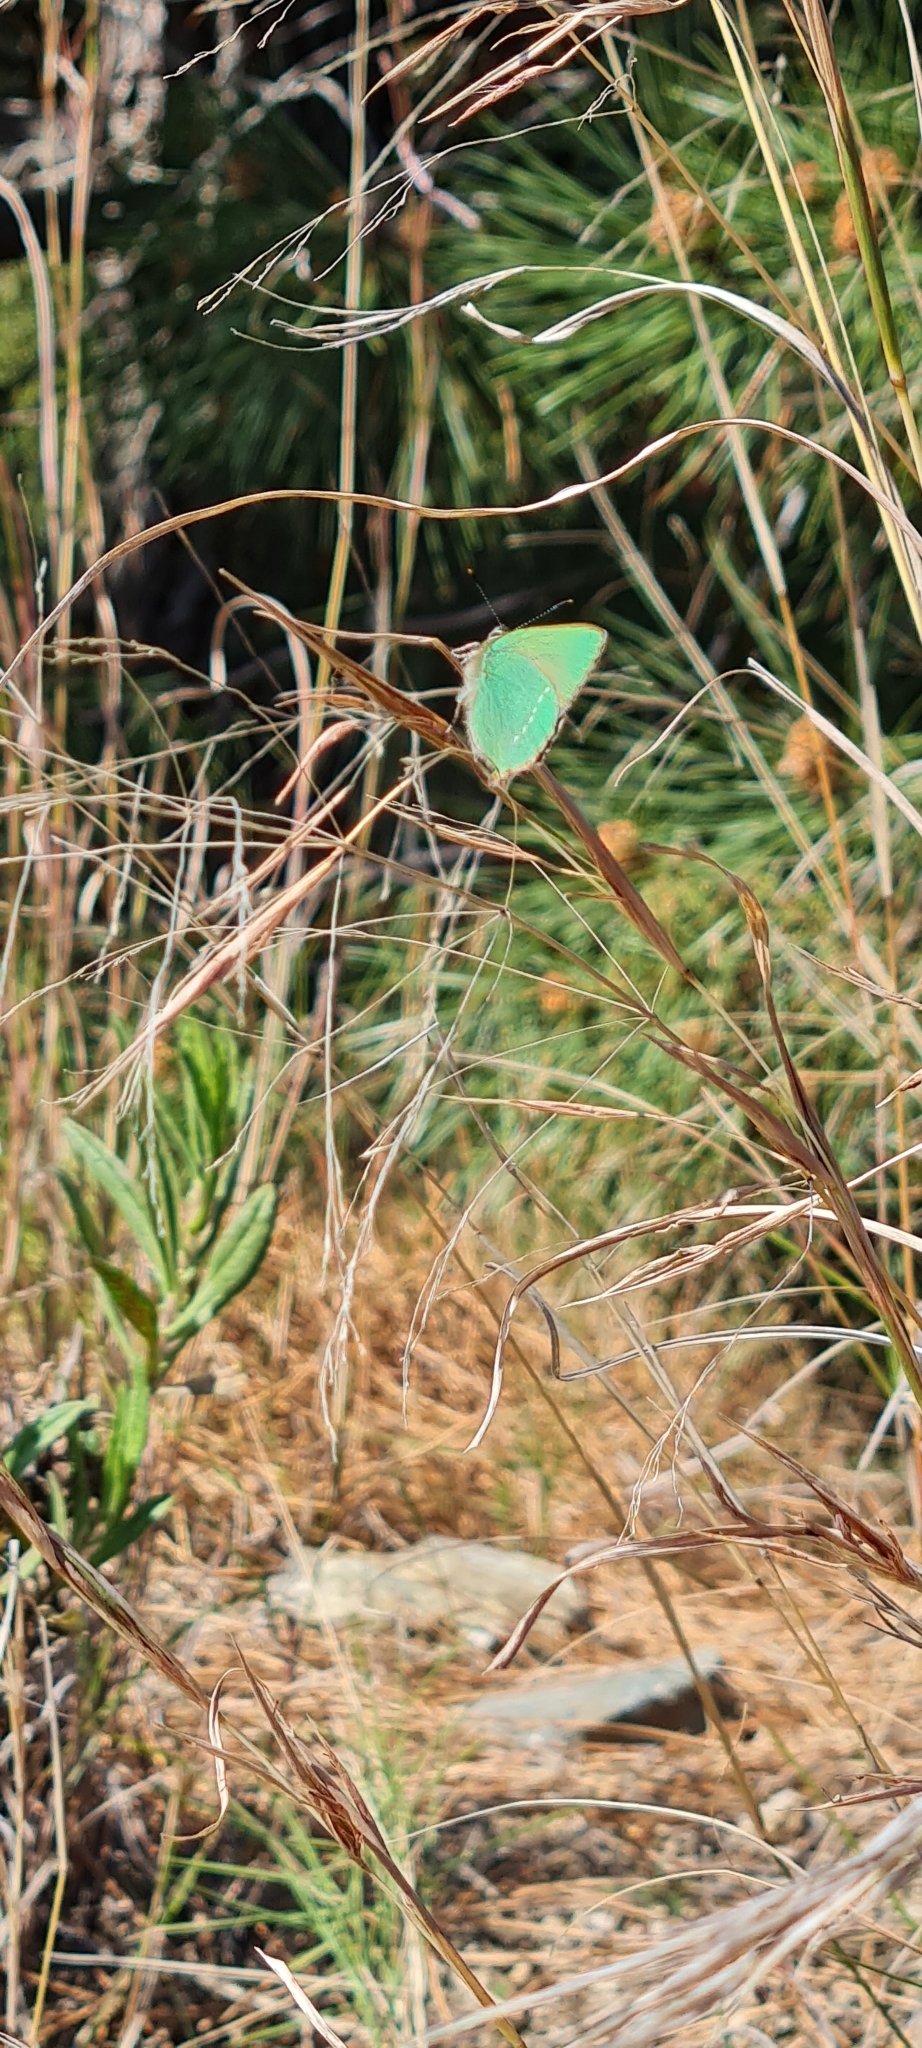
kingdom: Animalia
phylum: Arthropoda
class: Insecta
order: Lepidoptera
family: Lycaenidae
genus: Callophrys
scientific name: Callophrys rubi
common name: Green hairstreak
